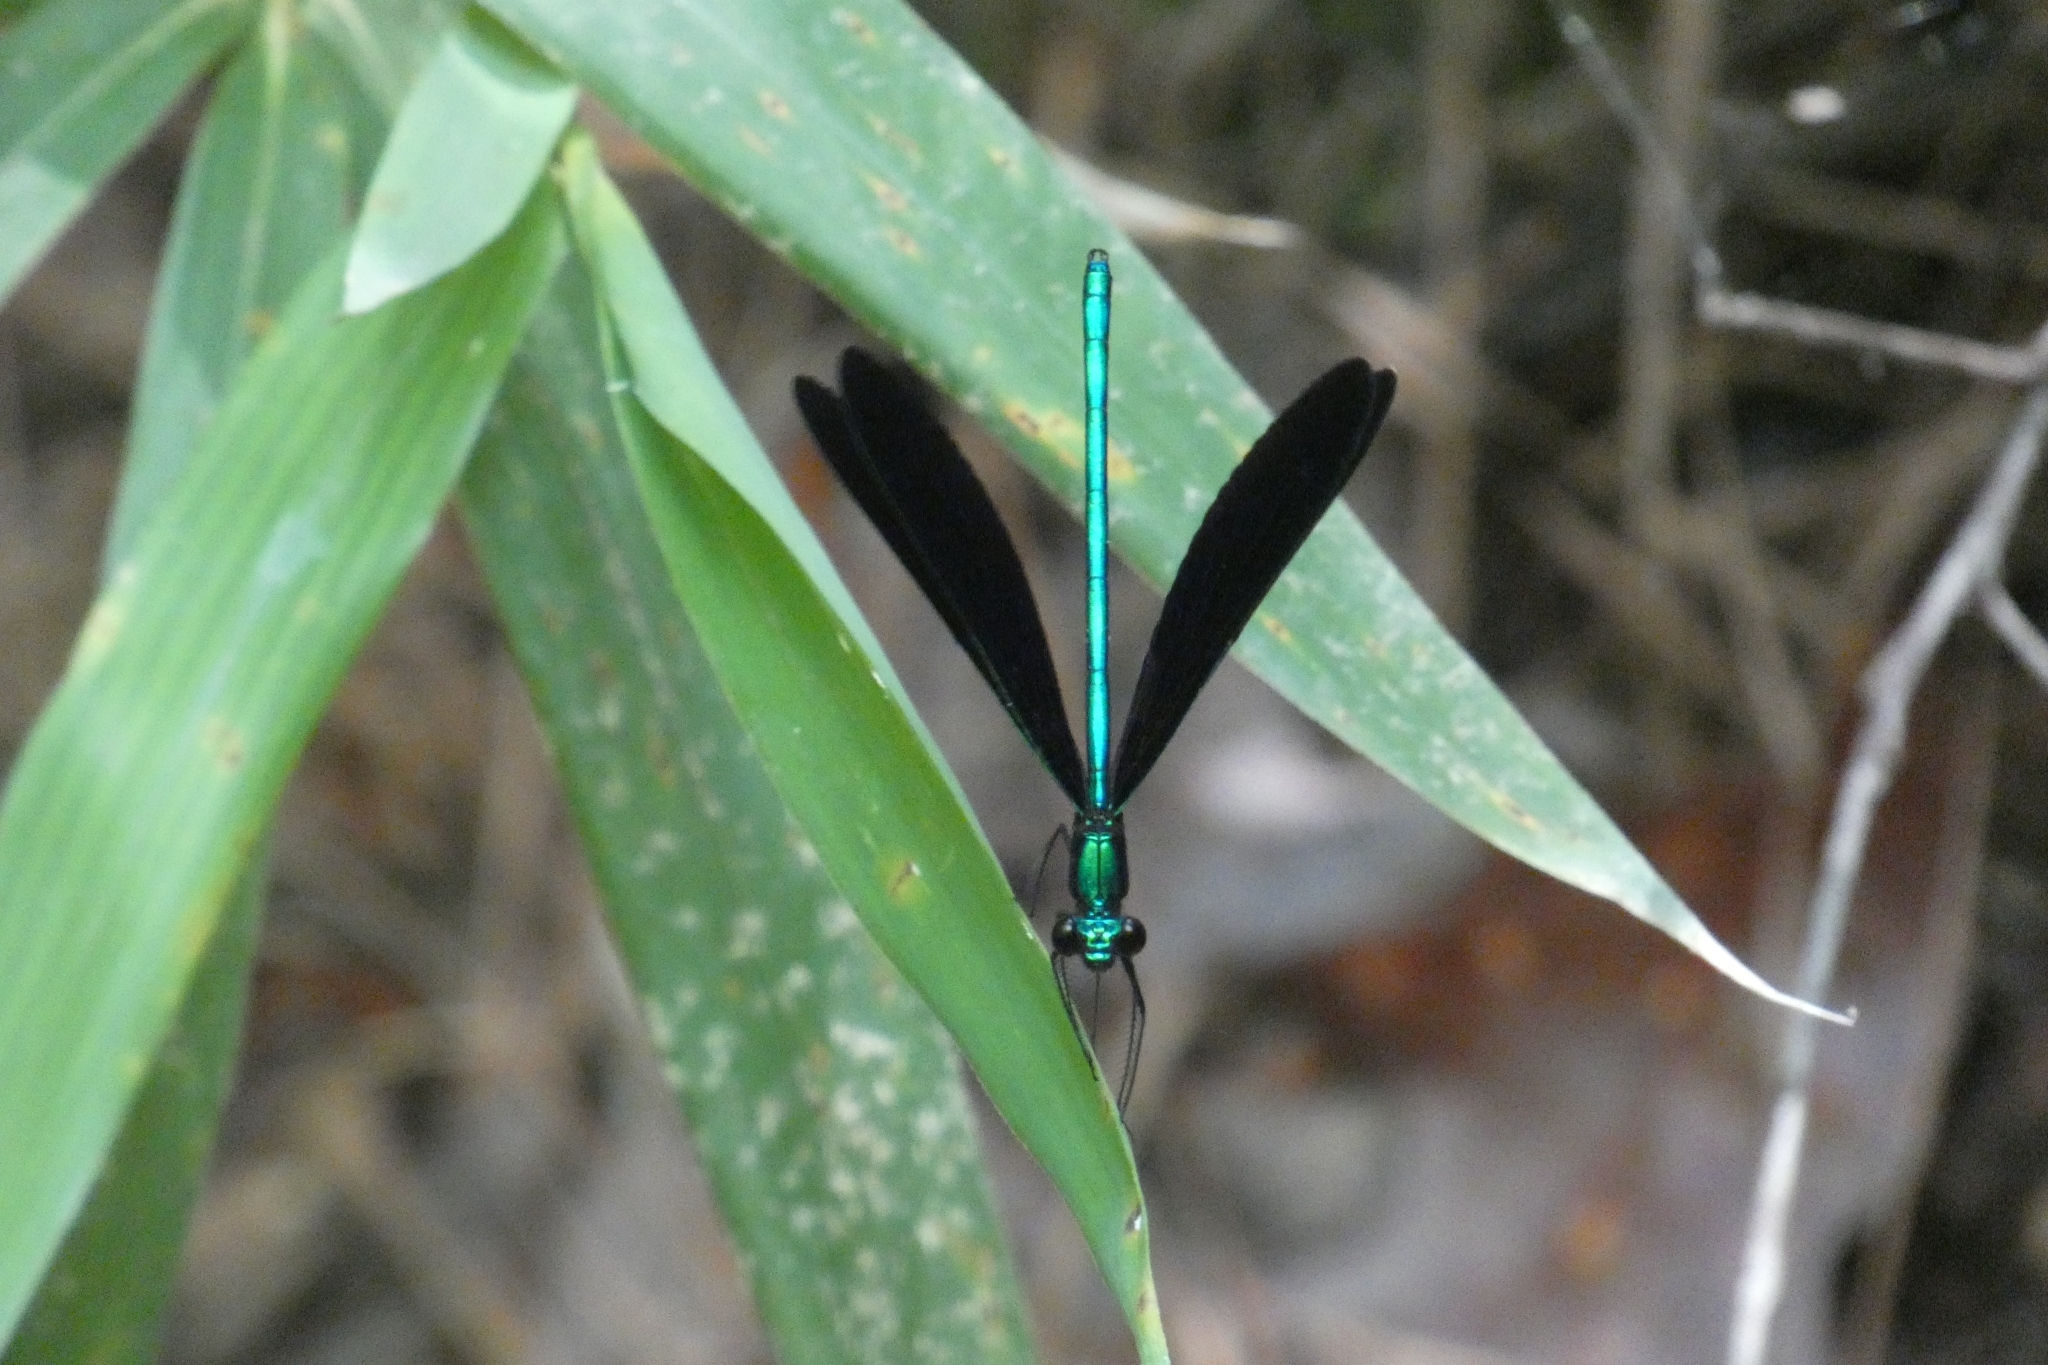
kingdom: Animalia
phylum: Arthropoda
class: Insecta
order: Odonata
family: Calopterygidae
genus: Calopteryx
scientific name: Calopteryx maculata
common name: Ebony jewelwing
